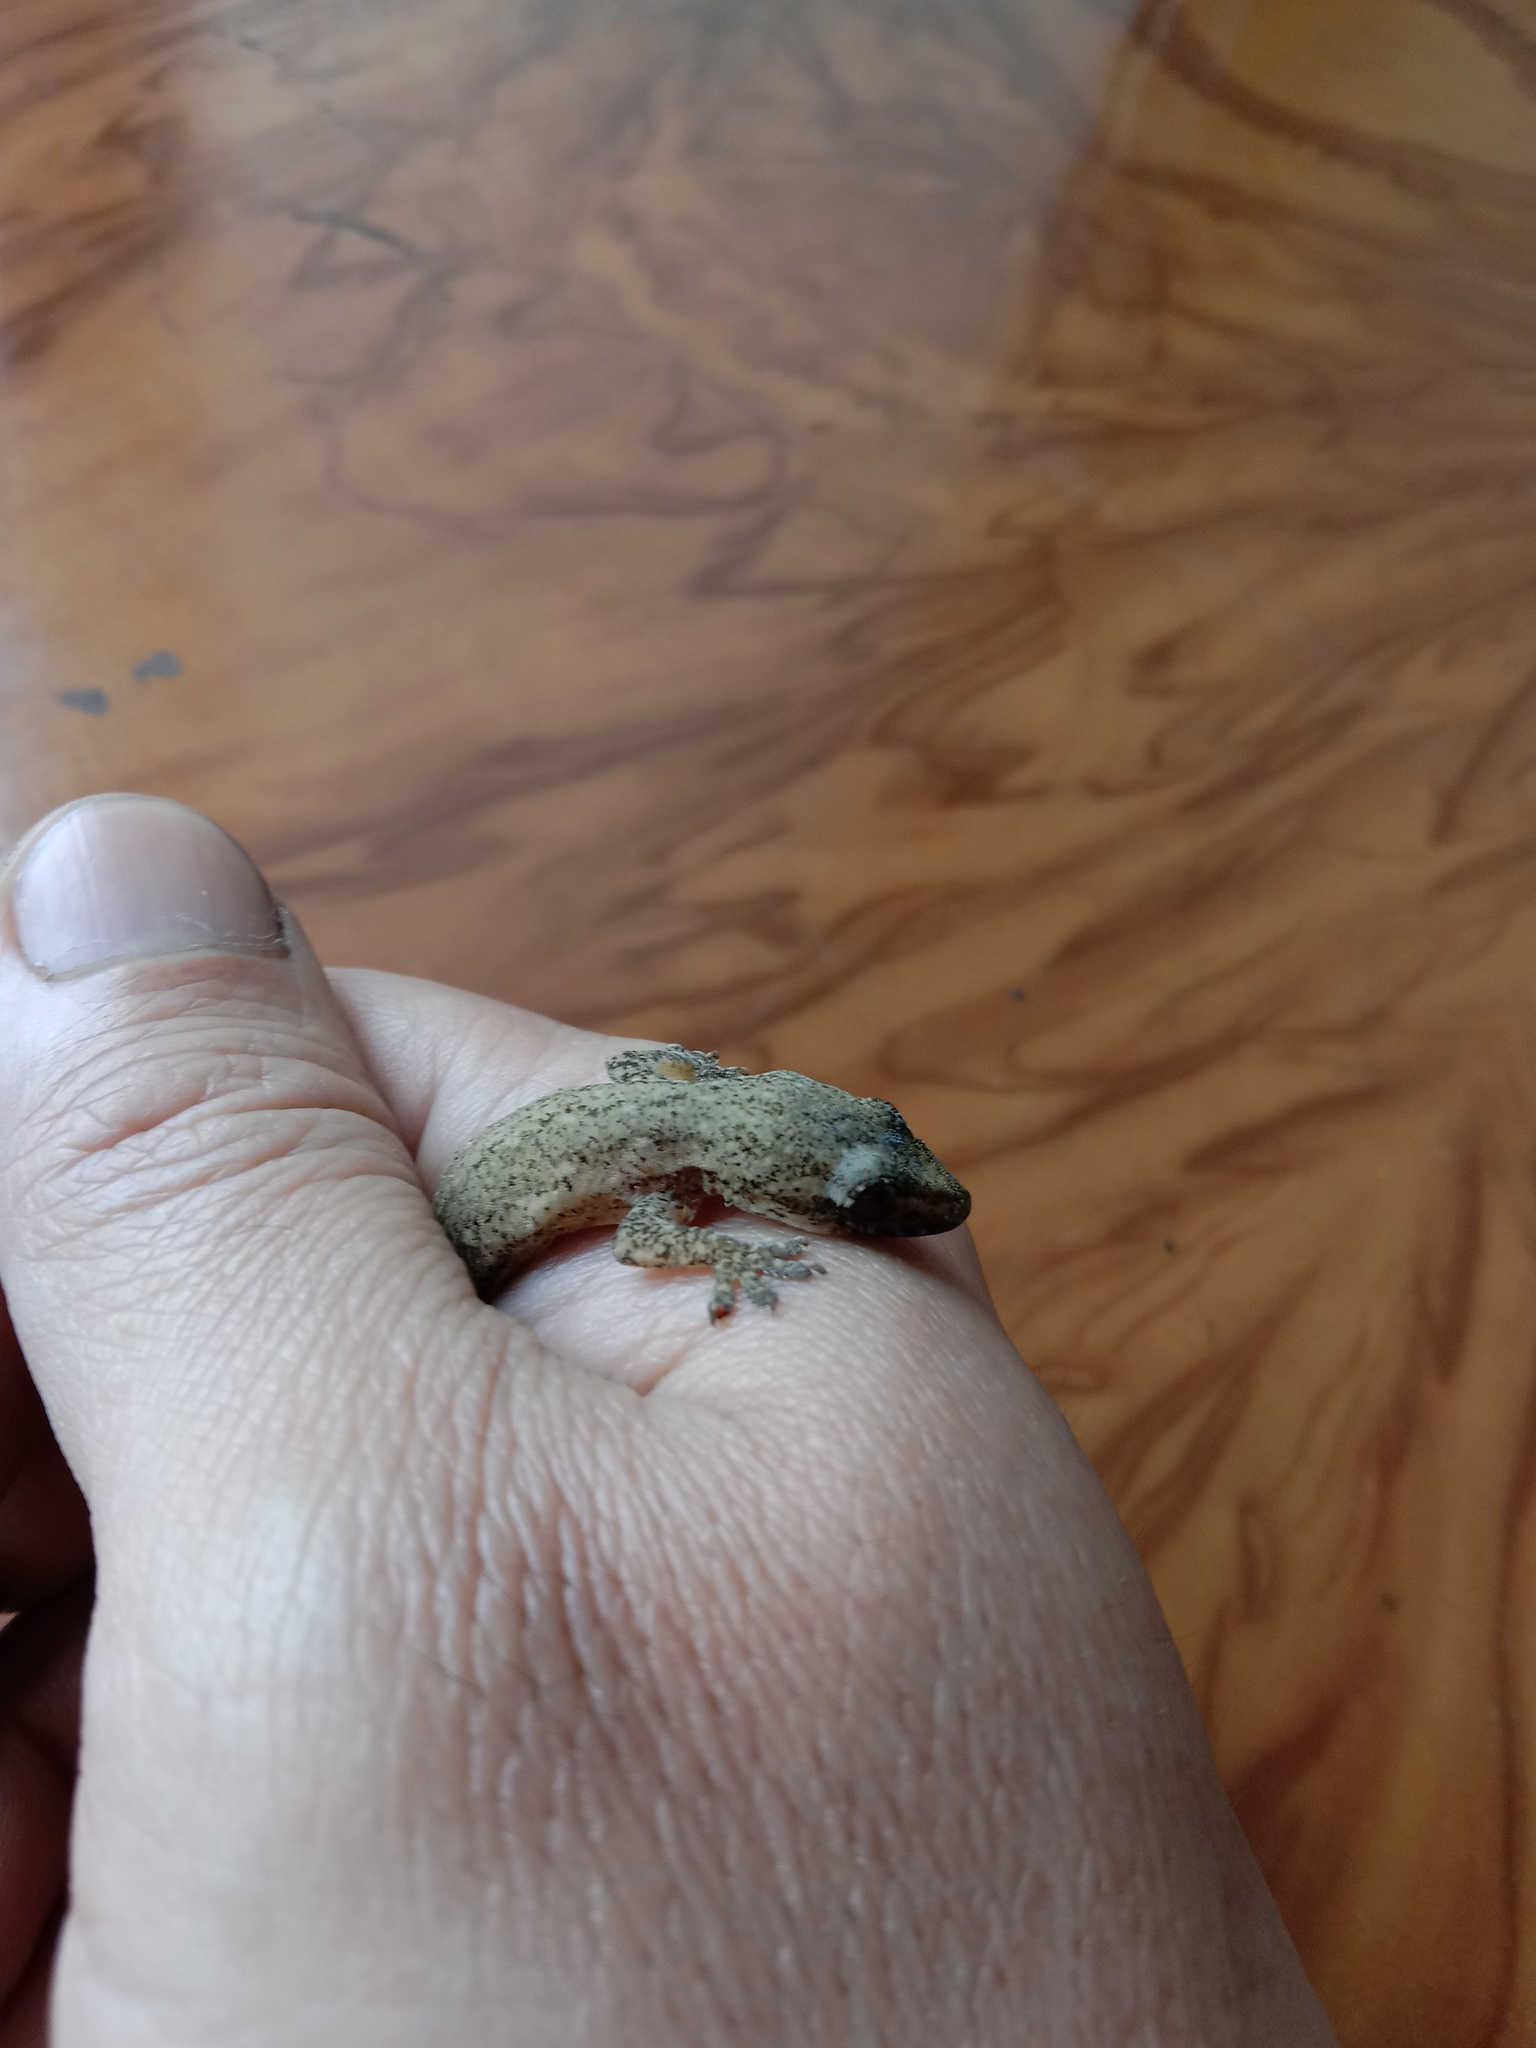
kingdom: Animalia
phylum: Chordata
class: Squamata
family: Gekkonidae
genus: Hemidactylus
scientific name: Hemidactylus frenatus
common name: Common house gecko
